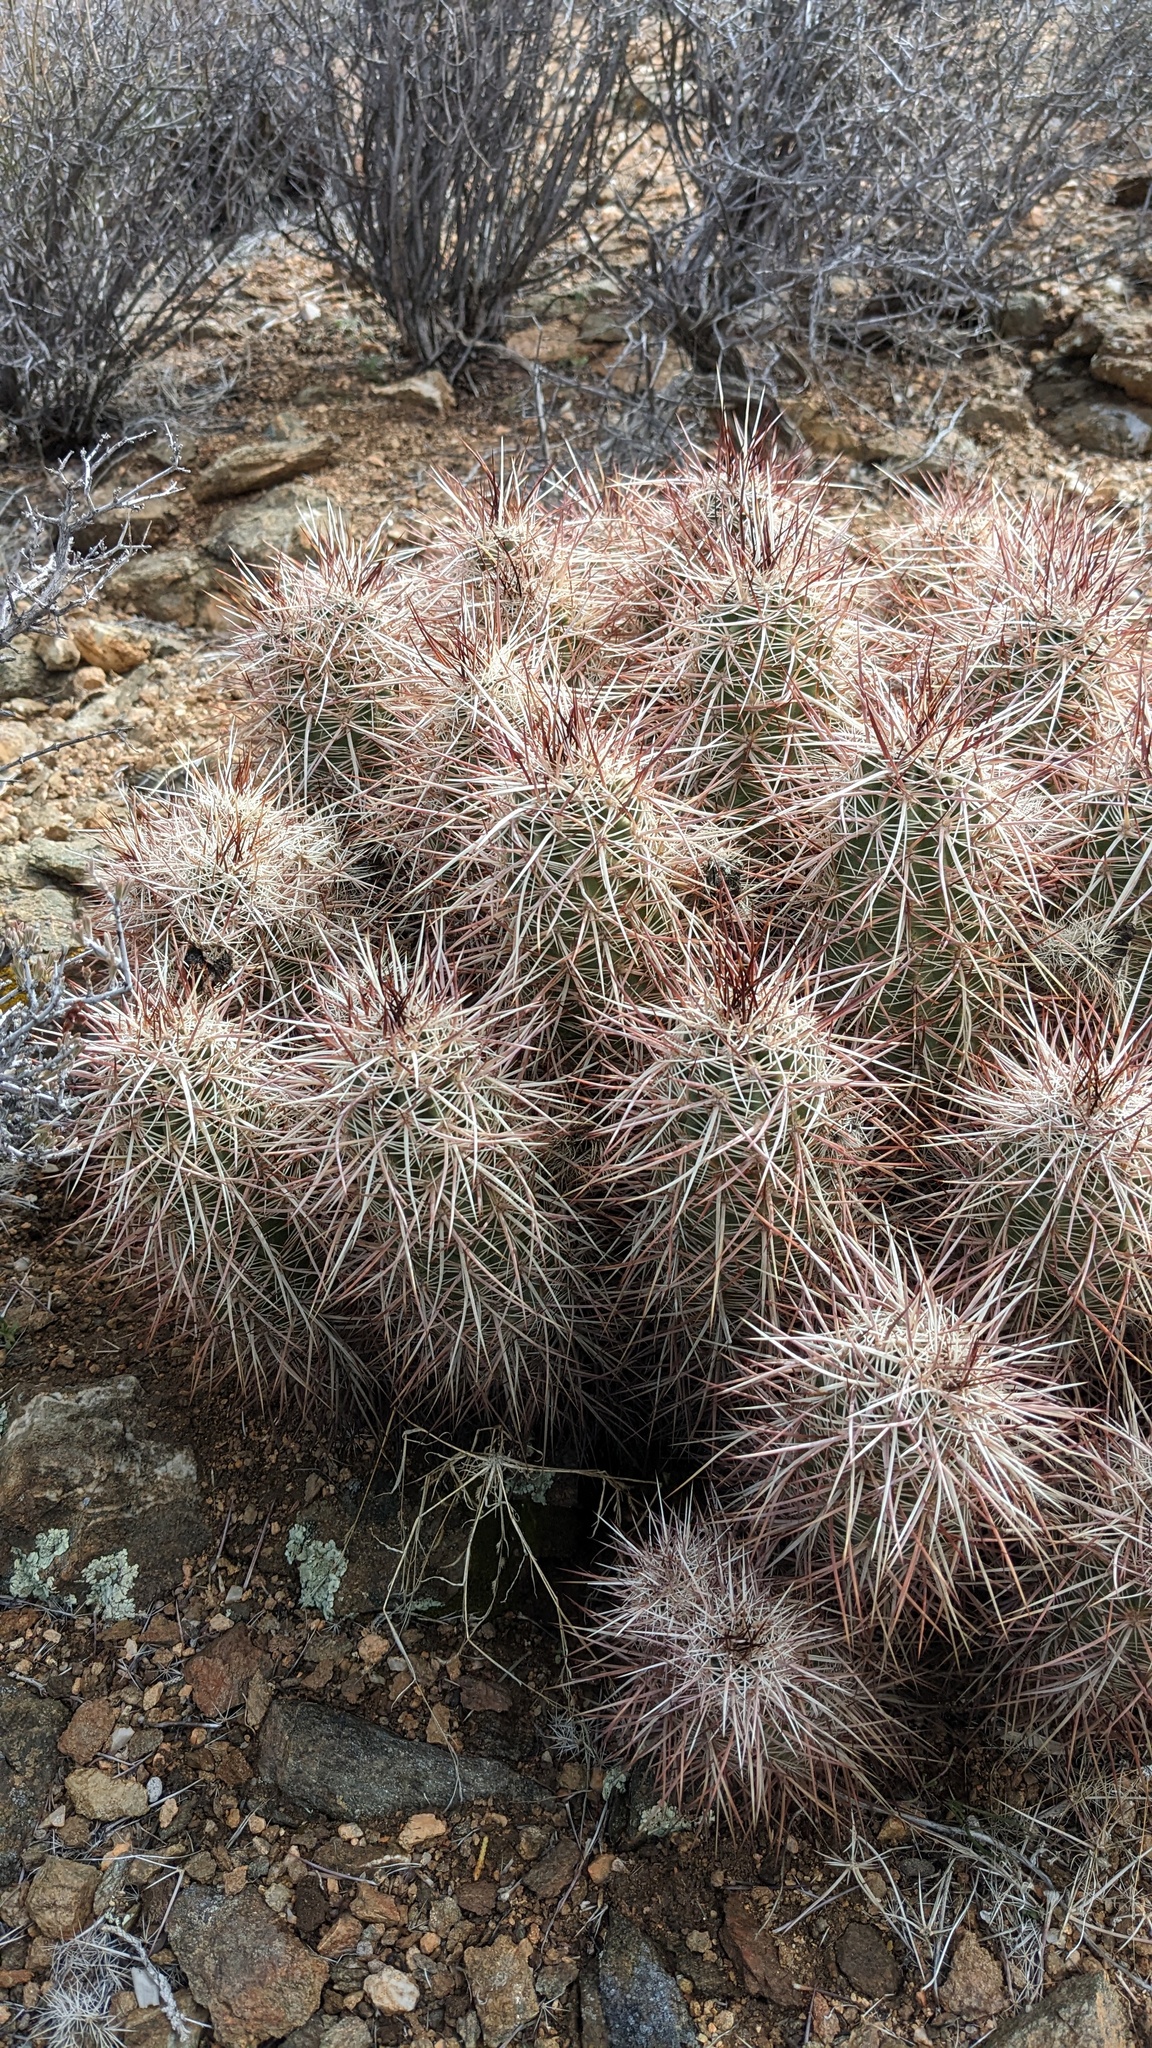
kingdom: Plantae
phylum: Tracheophyta
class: Magnoliopsida
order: Caryophyllales
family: Cactaceae
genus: Echinocereus
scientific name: Echinocereus engelmannii
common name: Engelmann's hedgehog cactus
